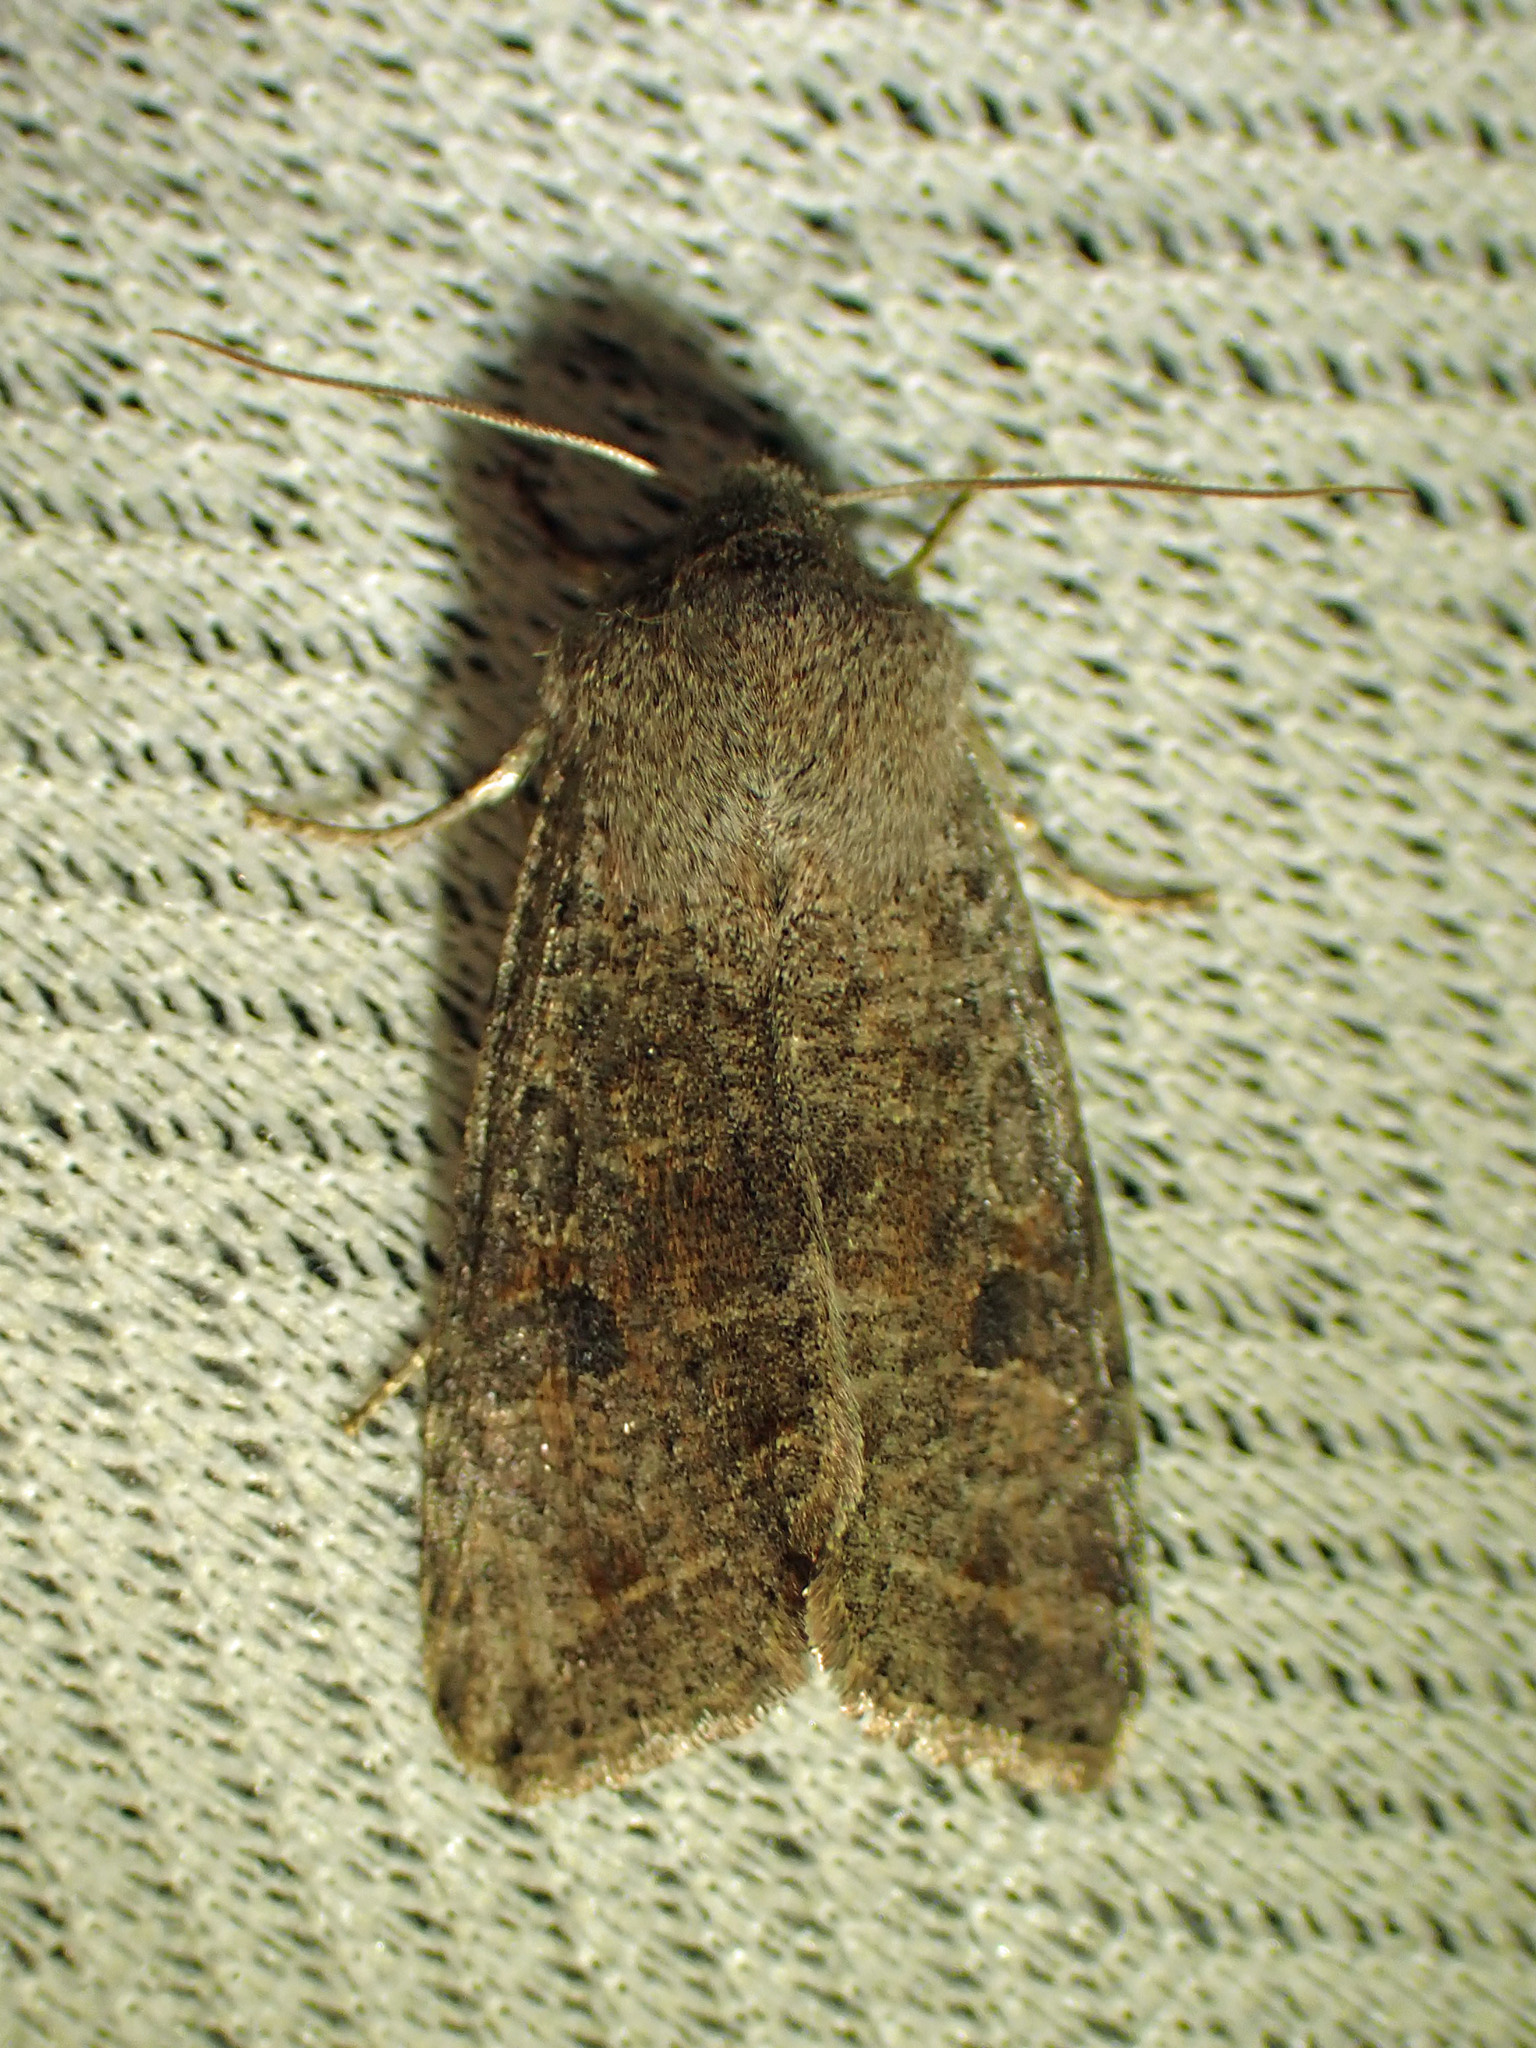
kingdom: Animalia
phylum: Arthropoda
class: Insecta
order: Lepidoptera
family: Noctuidae
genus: Orthosia
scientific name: Orthosia hibisci
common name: Green fruitworm
